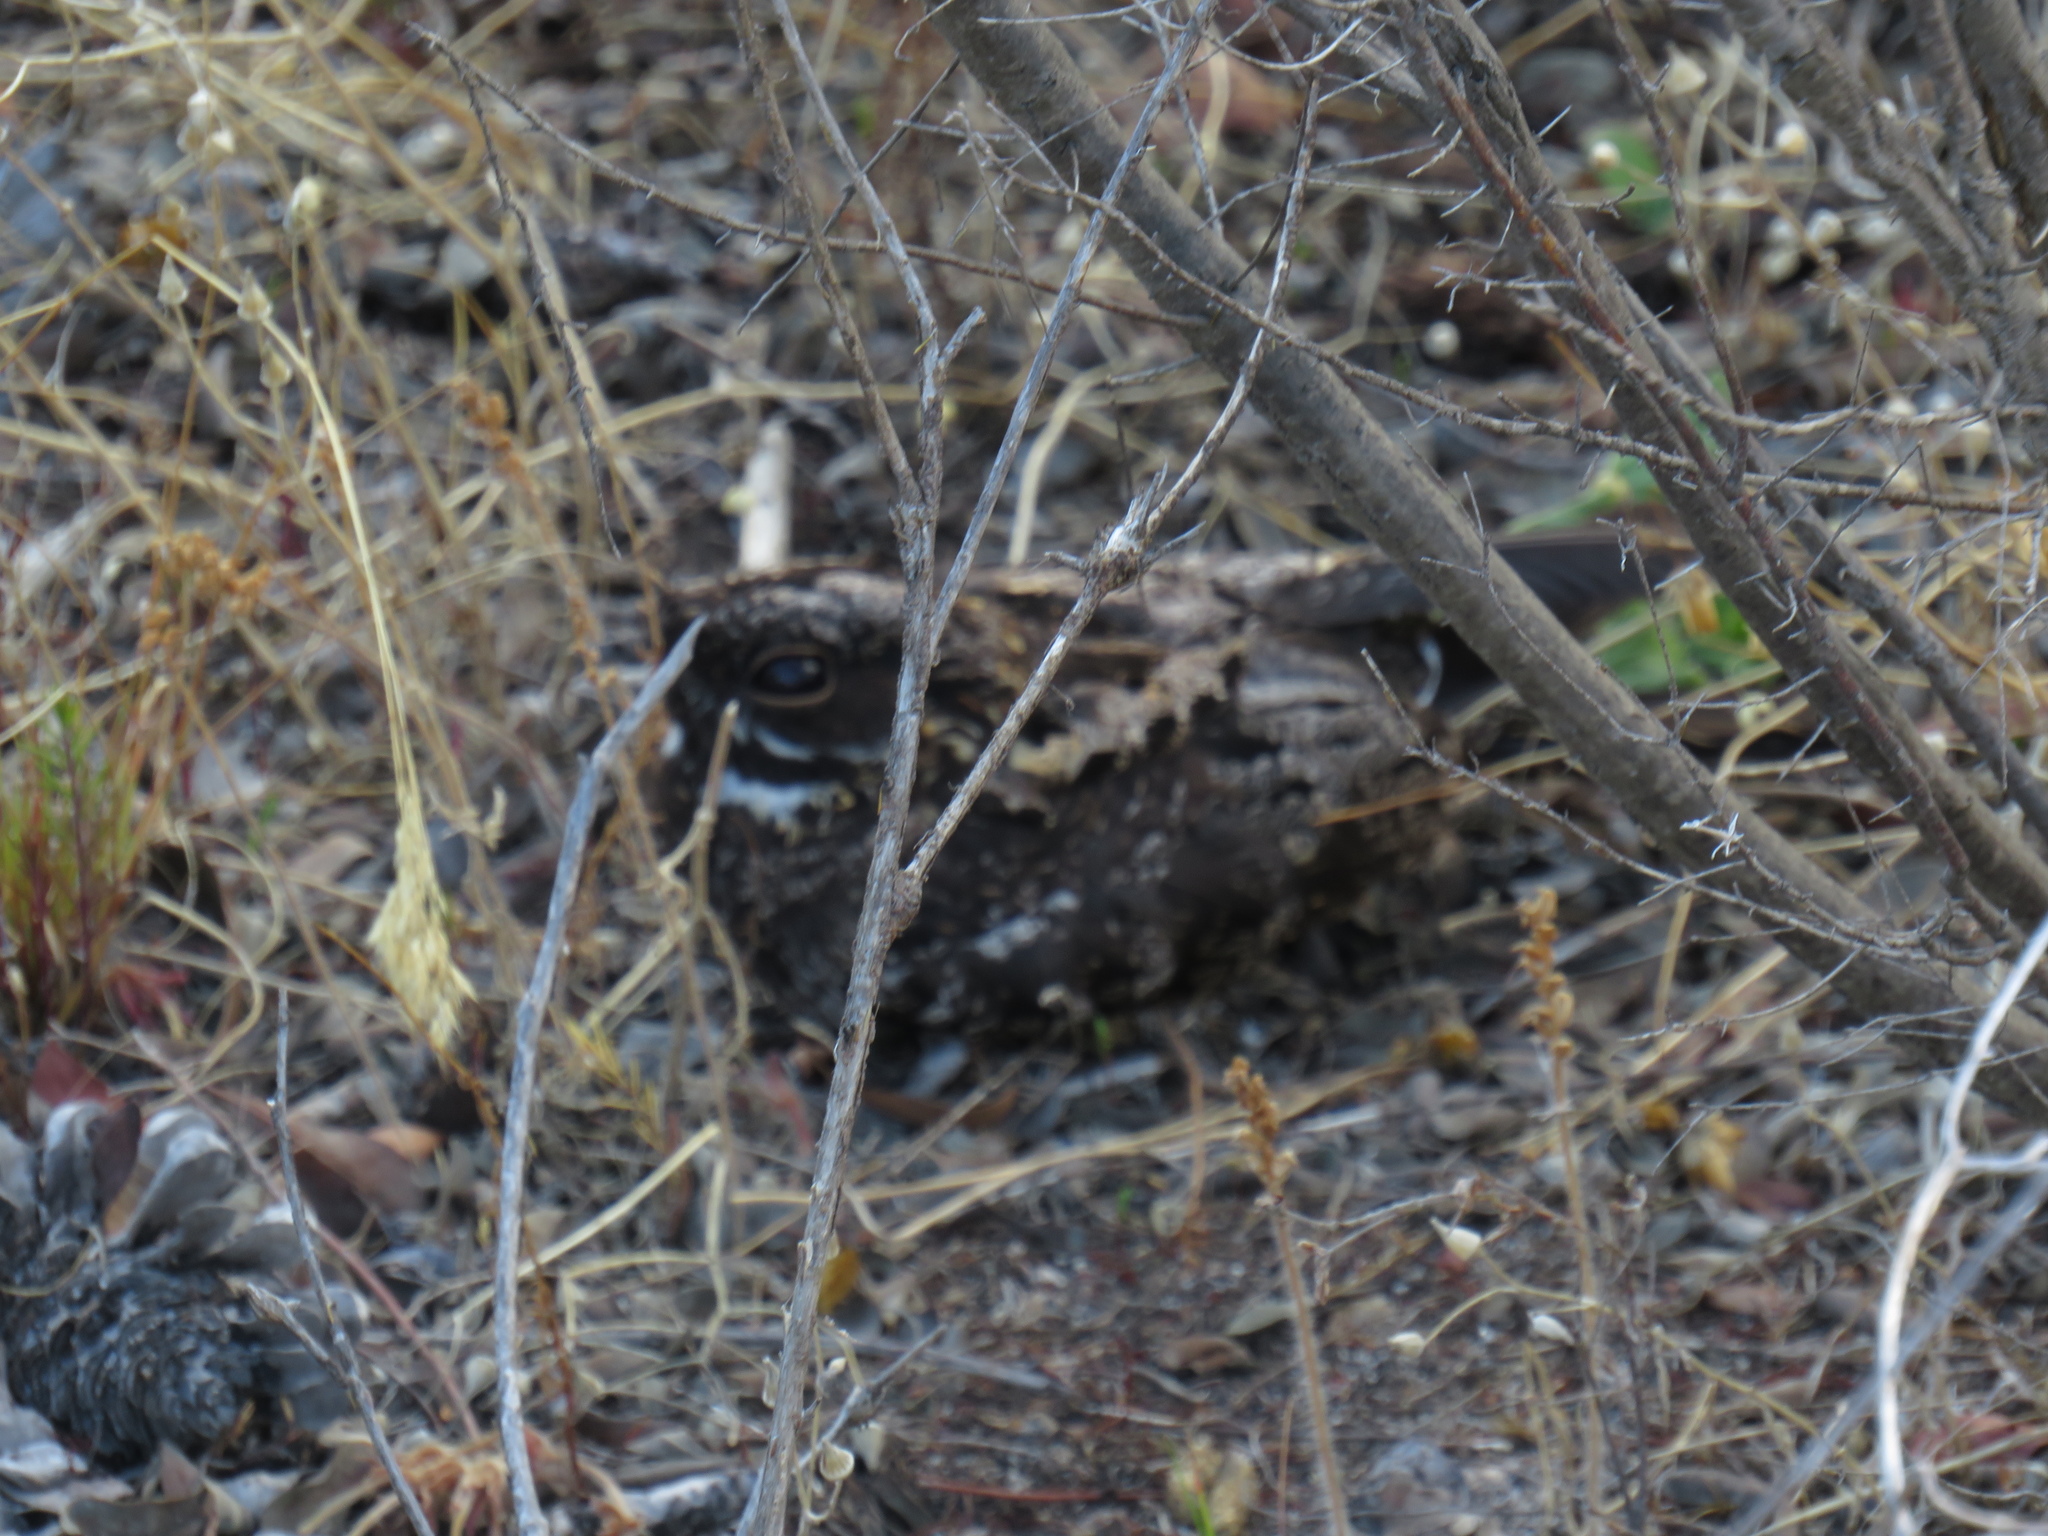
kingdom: Animalia
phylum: Chordata
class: Aves
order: Caprimulgiformes
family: Caprimulgidae
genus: Caprimulgus
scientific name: Caprimulgus pectoralis
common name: Fiery-necked nightjar
